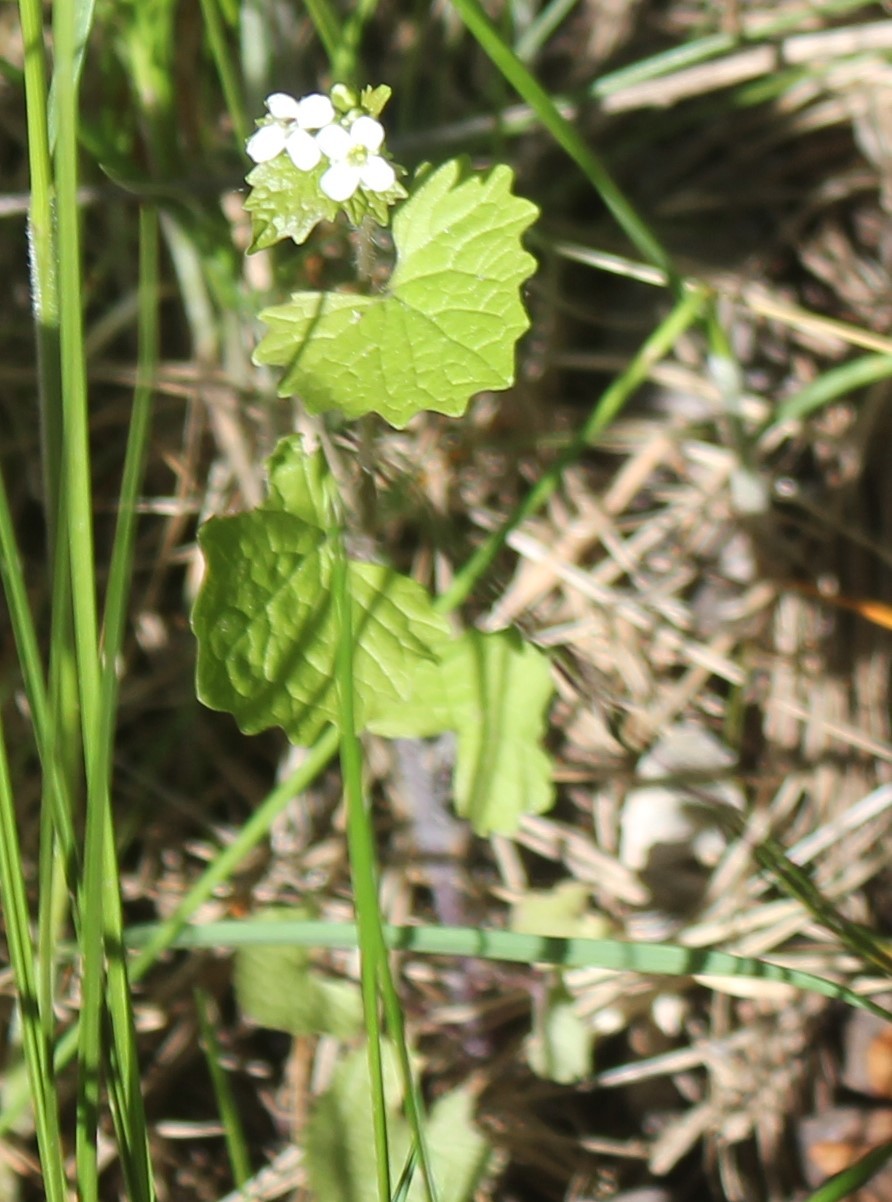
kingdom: Plantae
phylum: Tracheophyta
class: Magnoliopsida
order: Brassicales
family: Brassicaceae
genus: Alliaria
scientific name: Alliaria petiolata
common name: Garlic mustard
